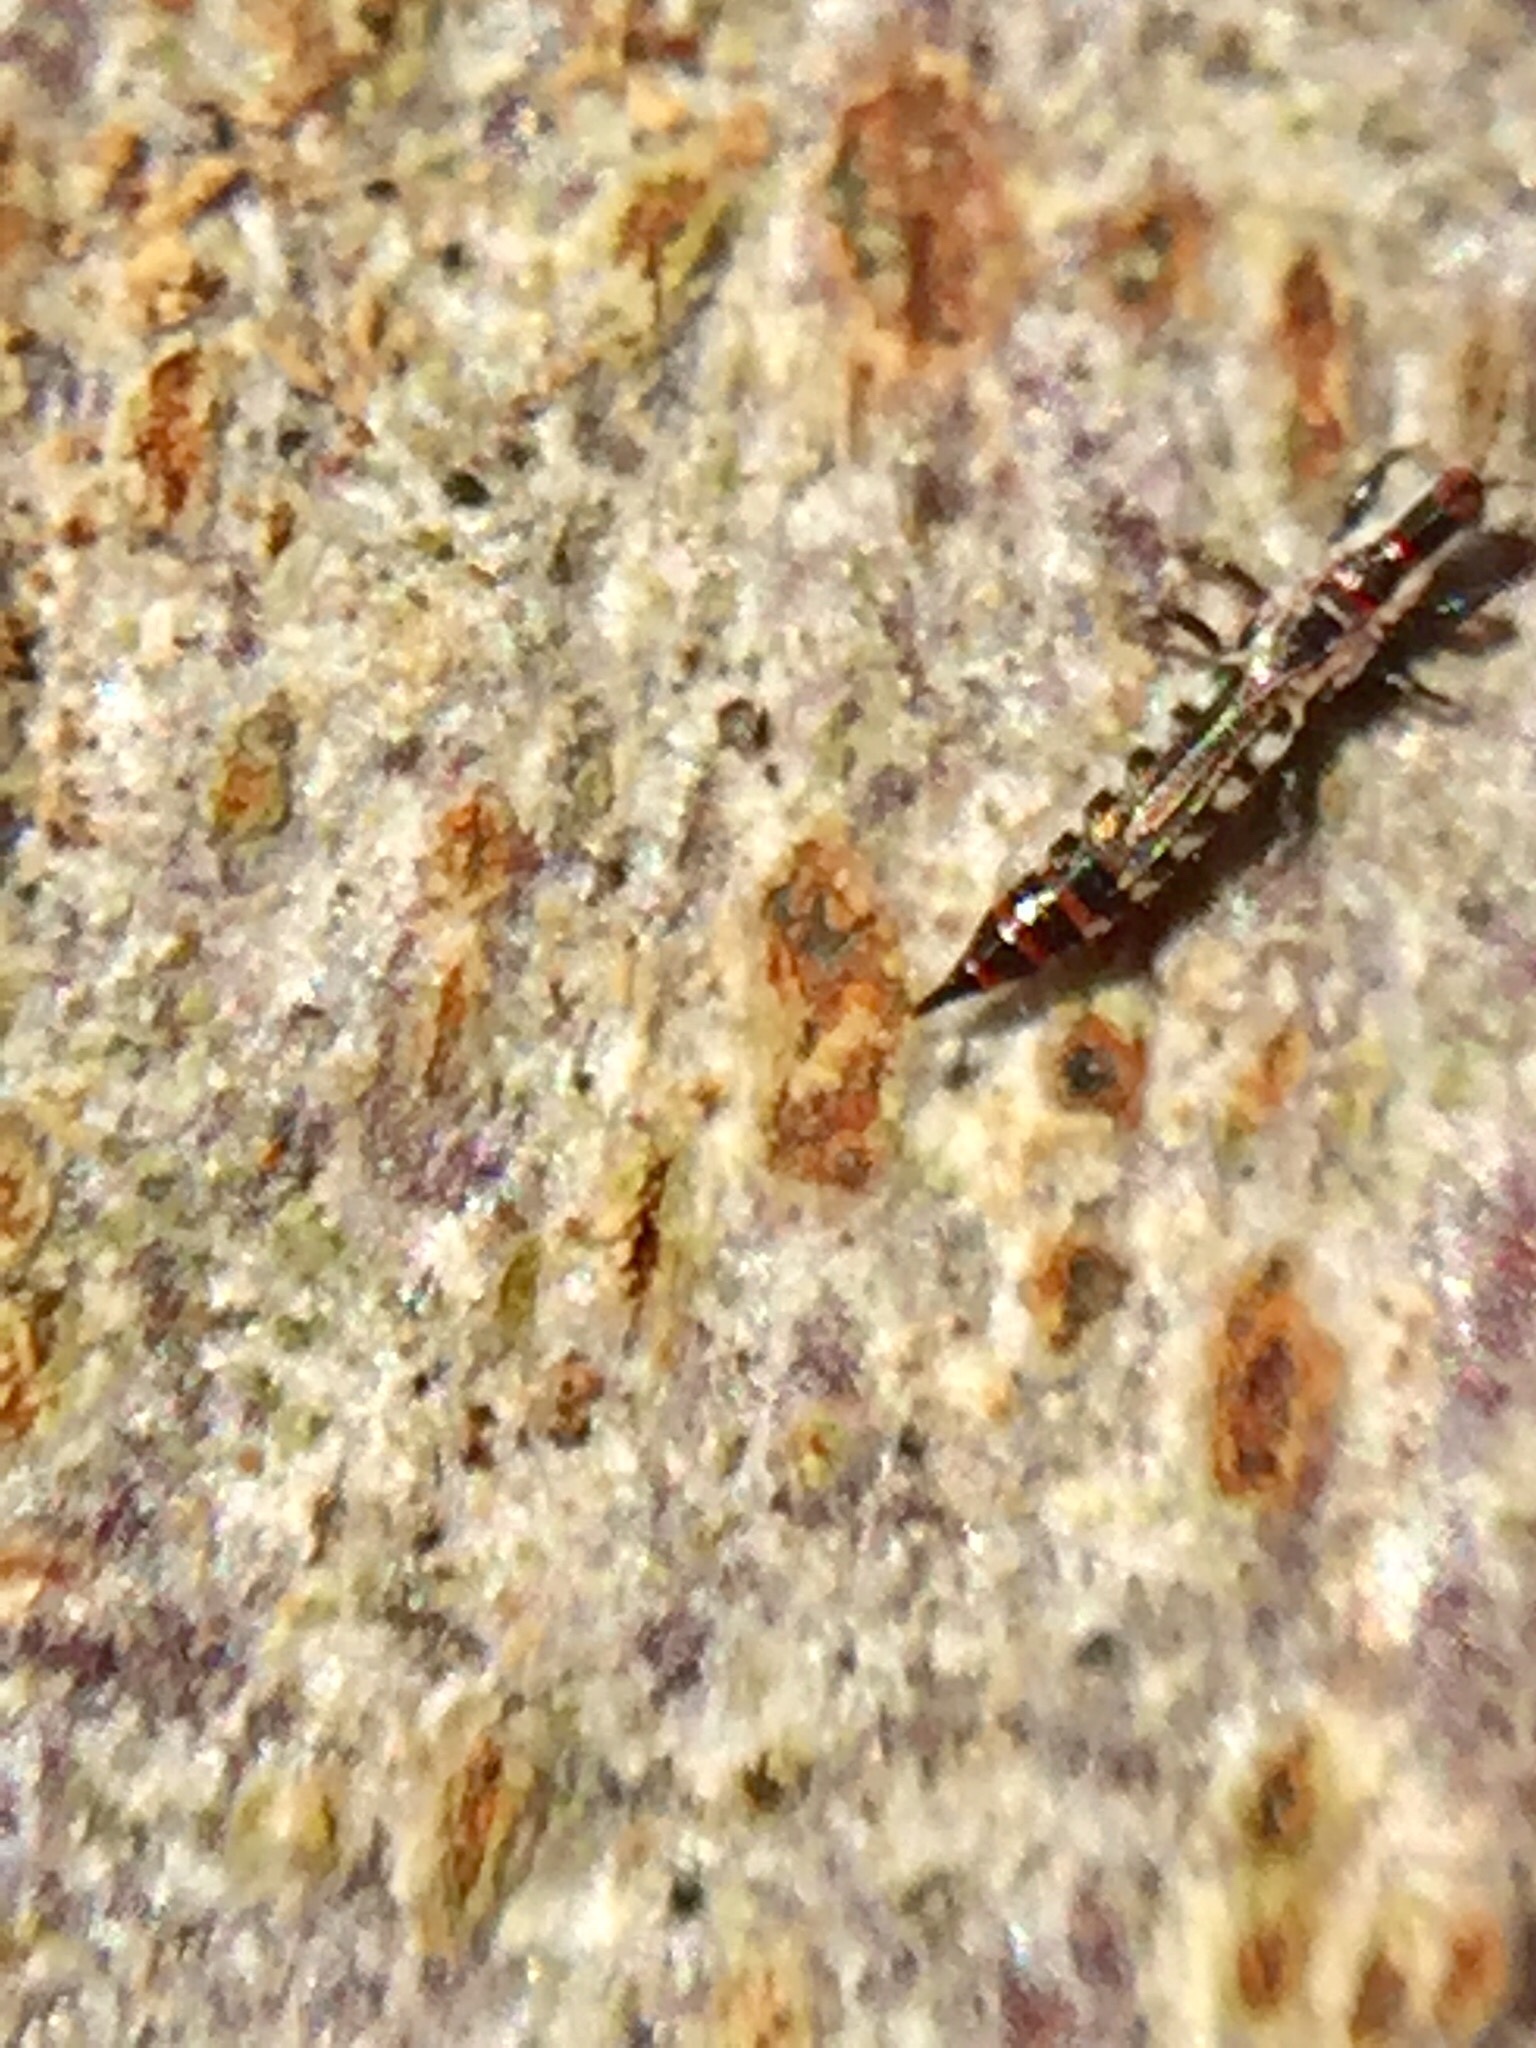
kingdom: Animalia
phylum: Arthropoda
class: Insecta
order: Thysanoptera
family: Phlaeothripidae
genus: Macrophthalmothrips
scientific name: Macrophthalmothrips argus
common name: Thrip
